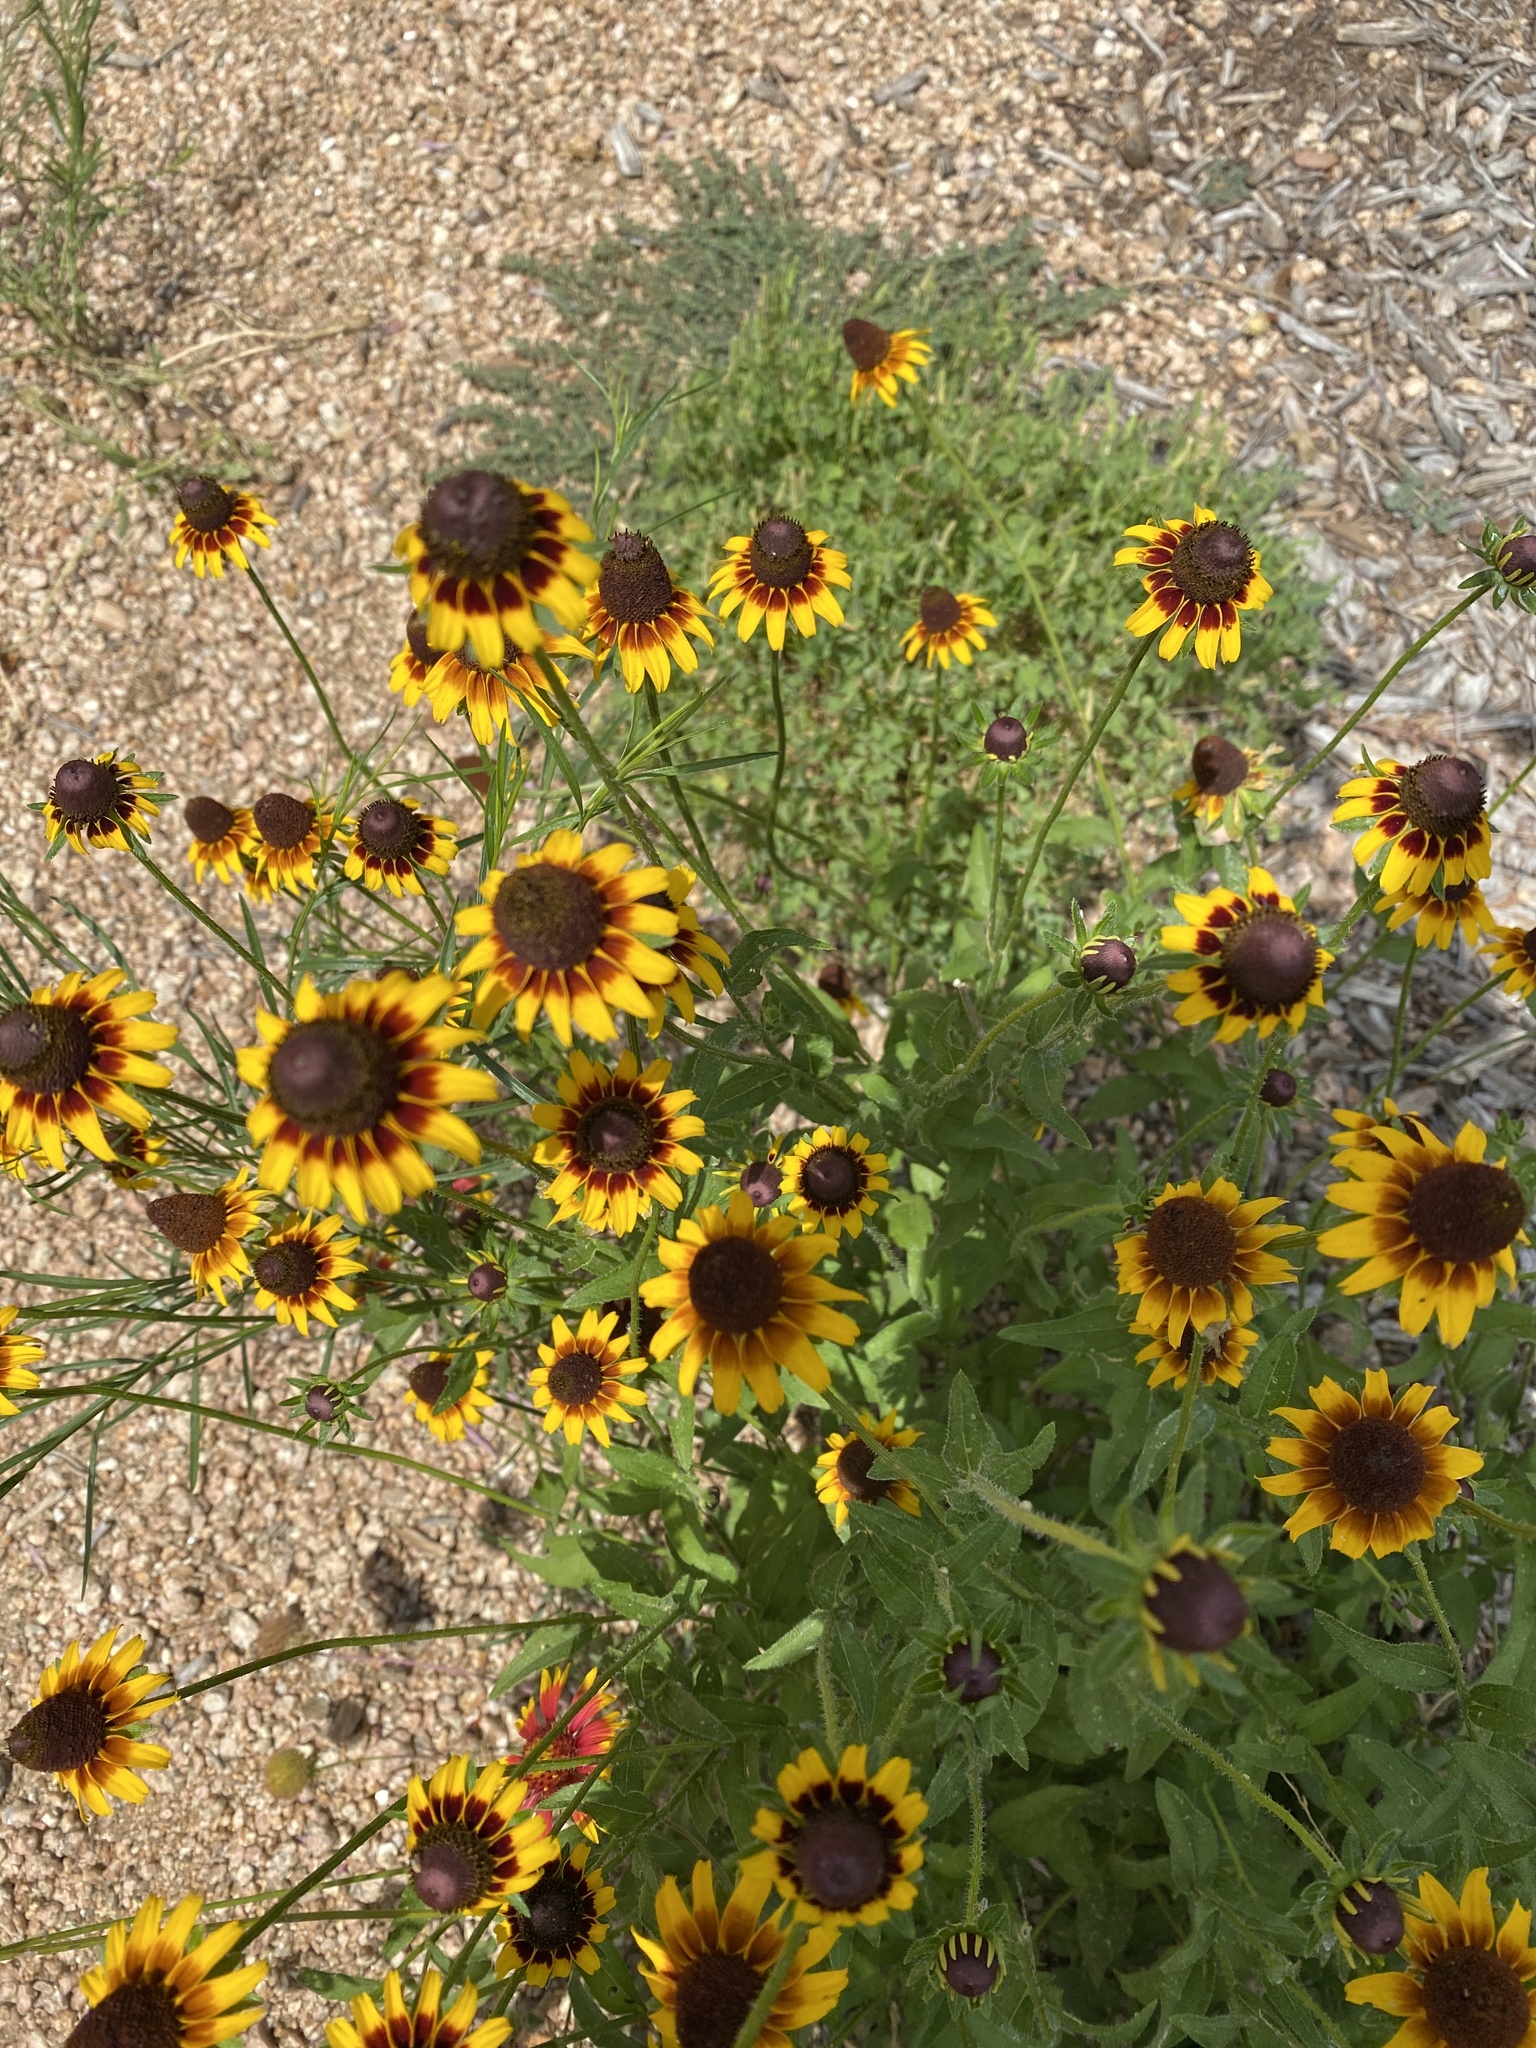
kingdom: Plantae
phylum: Tracheophyta
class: Magnoliopsida
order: Asterales
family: Asteraceae
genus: Rudbeckia
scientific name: Rudbeckia hirta
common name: Black-eyed-susan
